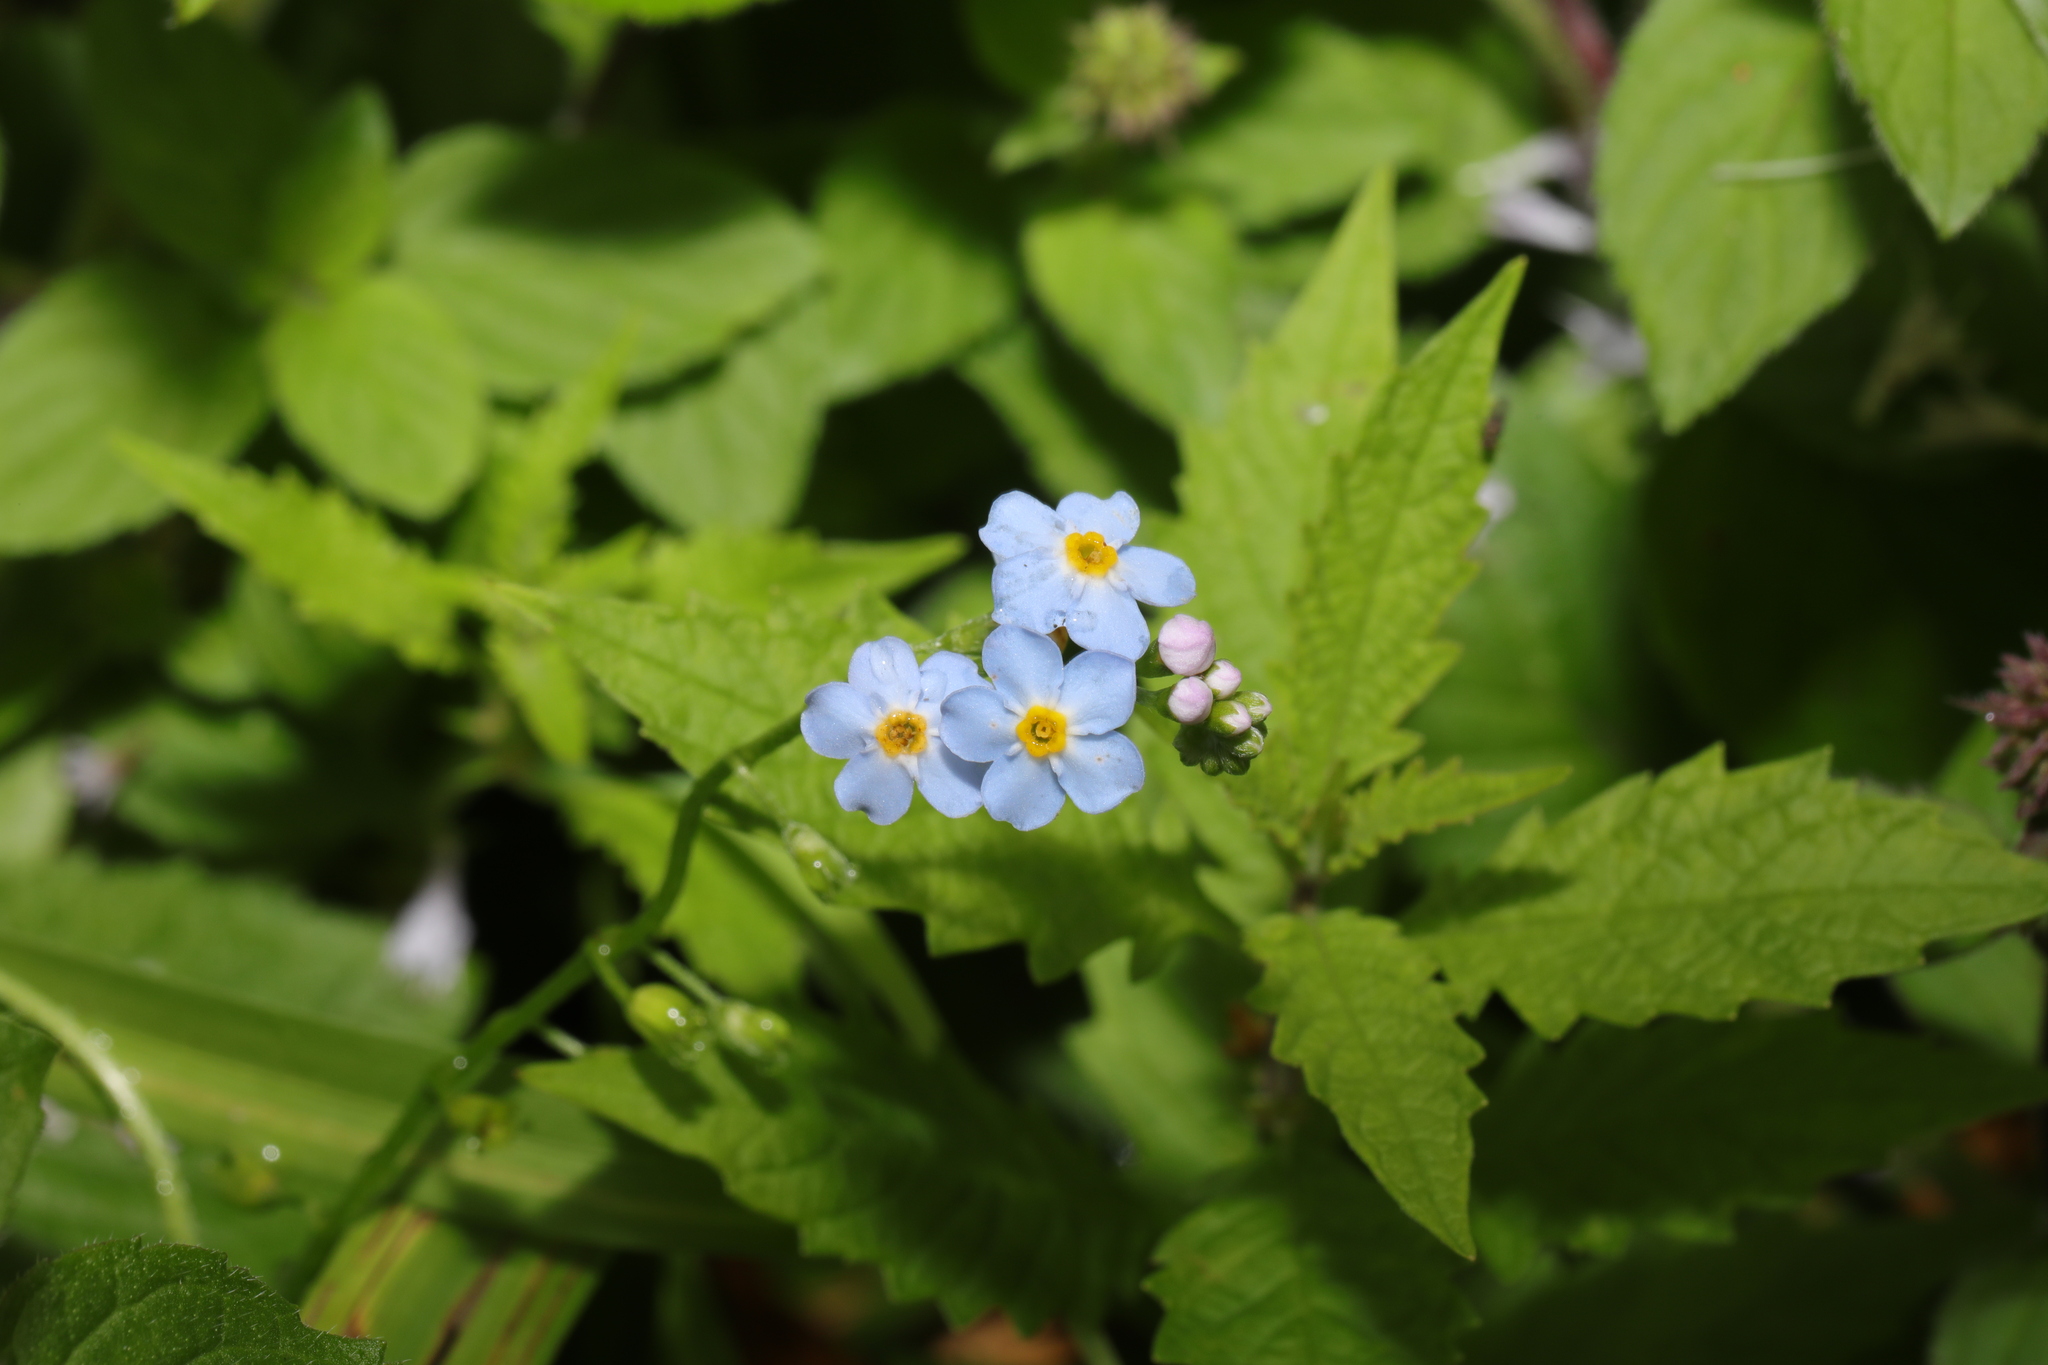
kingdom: Plantae
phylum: Tracheophyta
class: Magnoliopsida
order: Boraginales
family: Boraginaceae
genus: Myosotis
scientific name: Myosotis scorpioides
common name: Water forget-me-not
